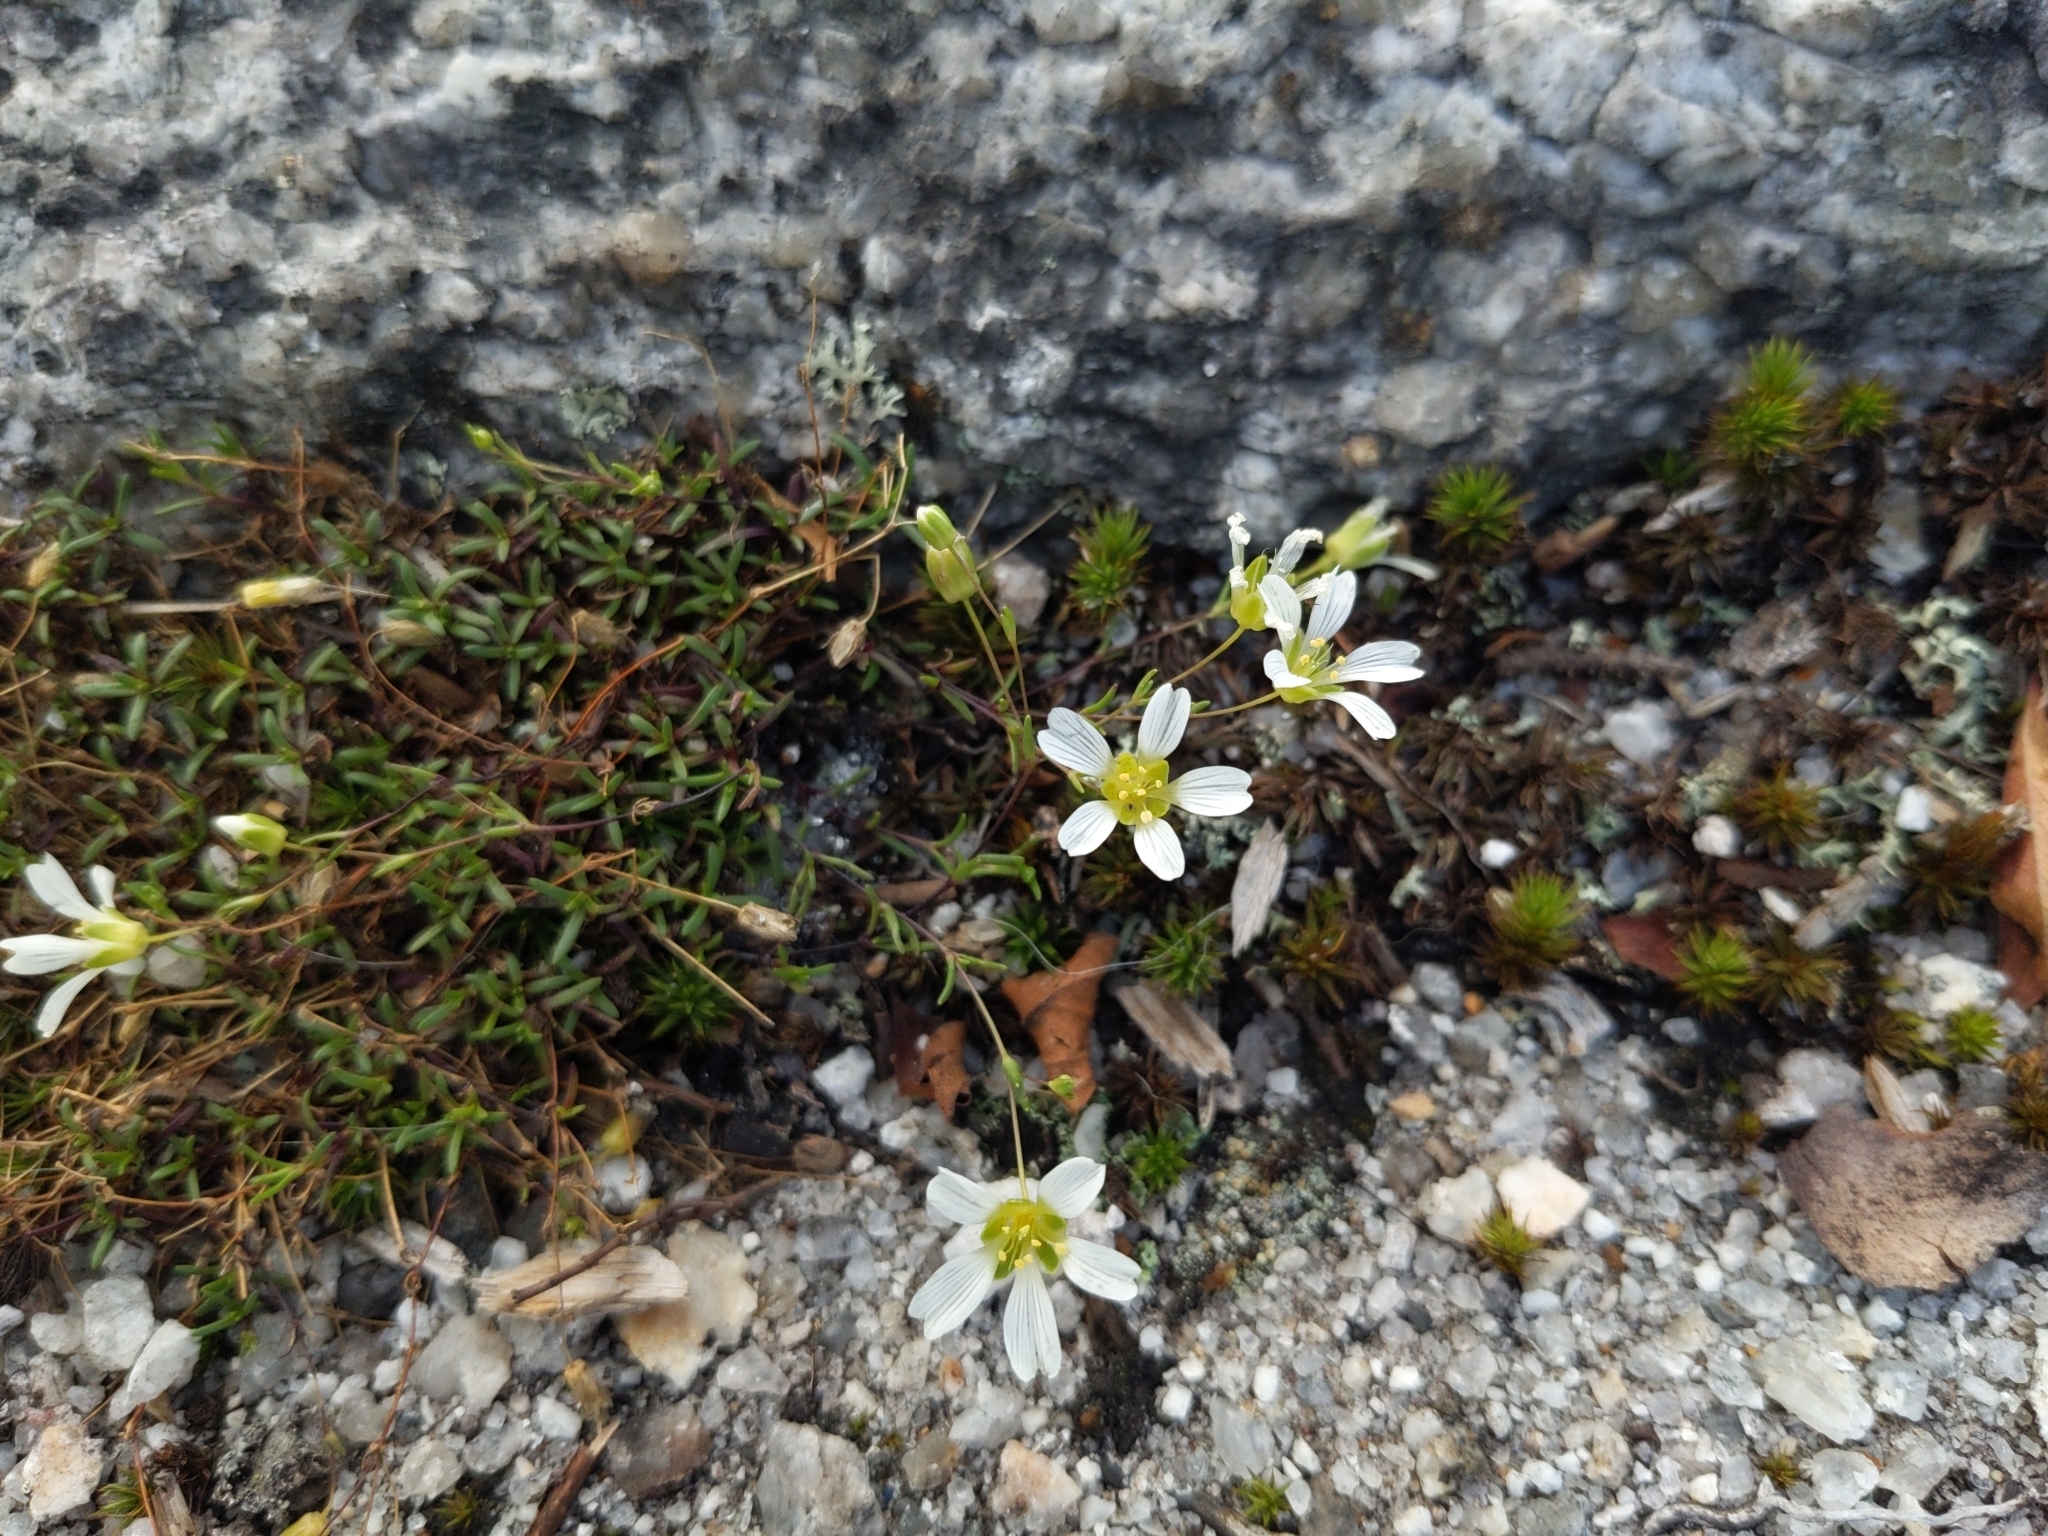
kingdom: Plantae
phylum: Tracheophyta
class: Magnoliopsida
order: Caryophyllales
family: Caryophyllaceae
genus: Geocarpon
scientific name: Geocarpon groenlandicum
